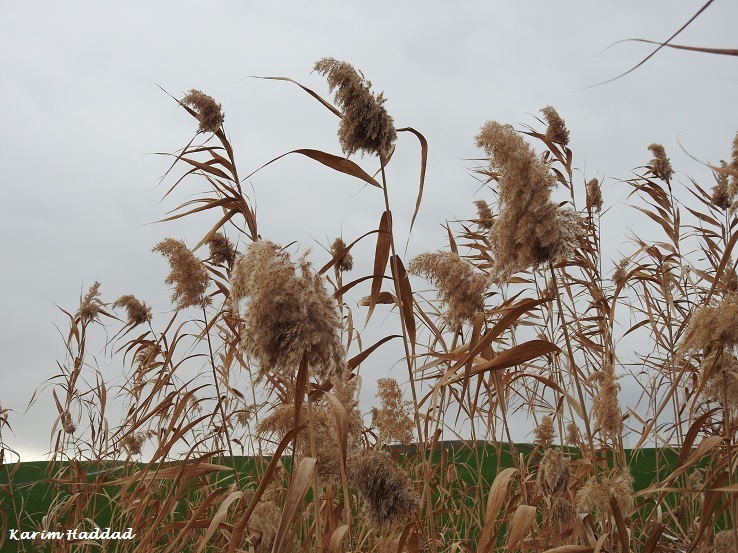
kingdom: Plantae
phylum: Tracheophyta
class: Liliopsida
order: Poales
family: Poaceae
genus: Phragmites
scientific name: Phragmites australis
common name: Common reed
